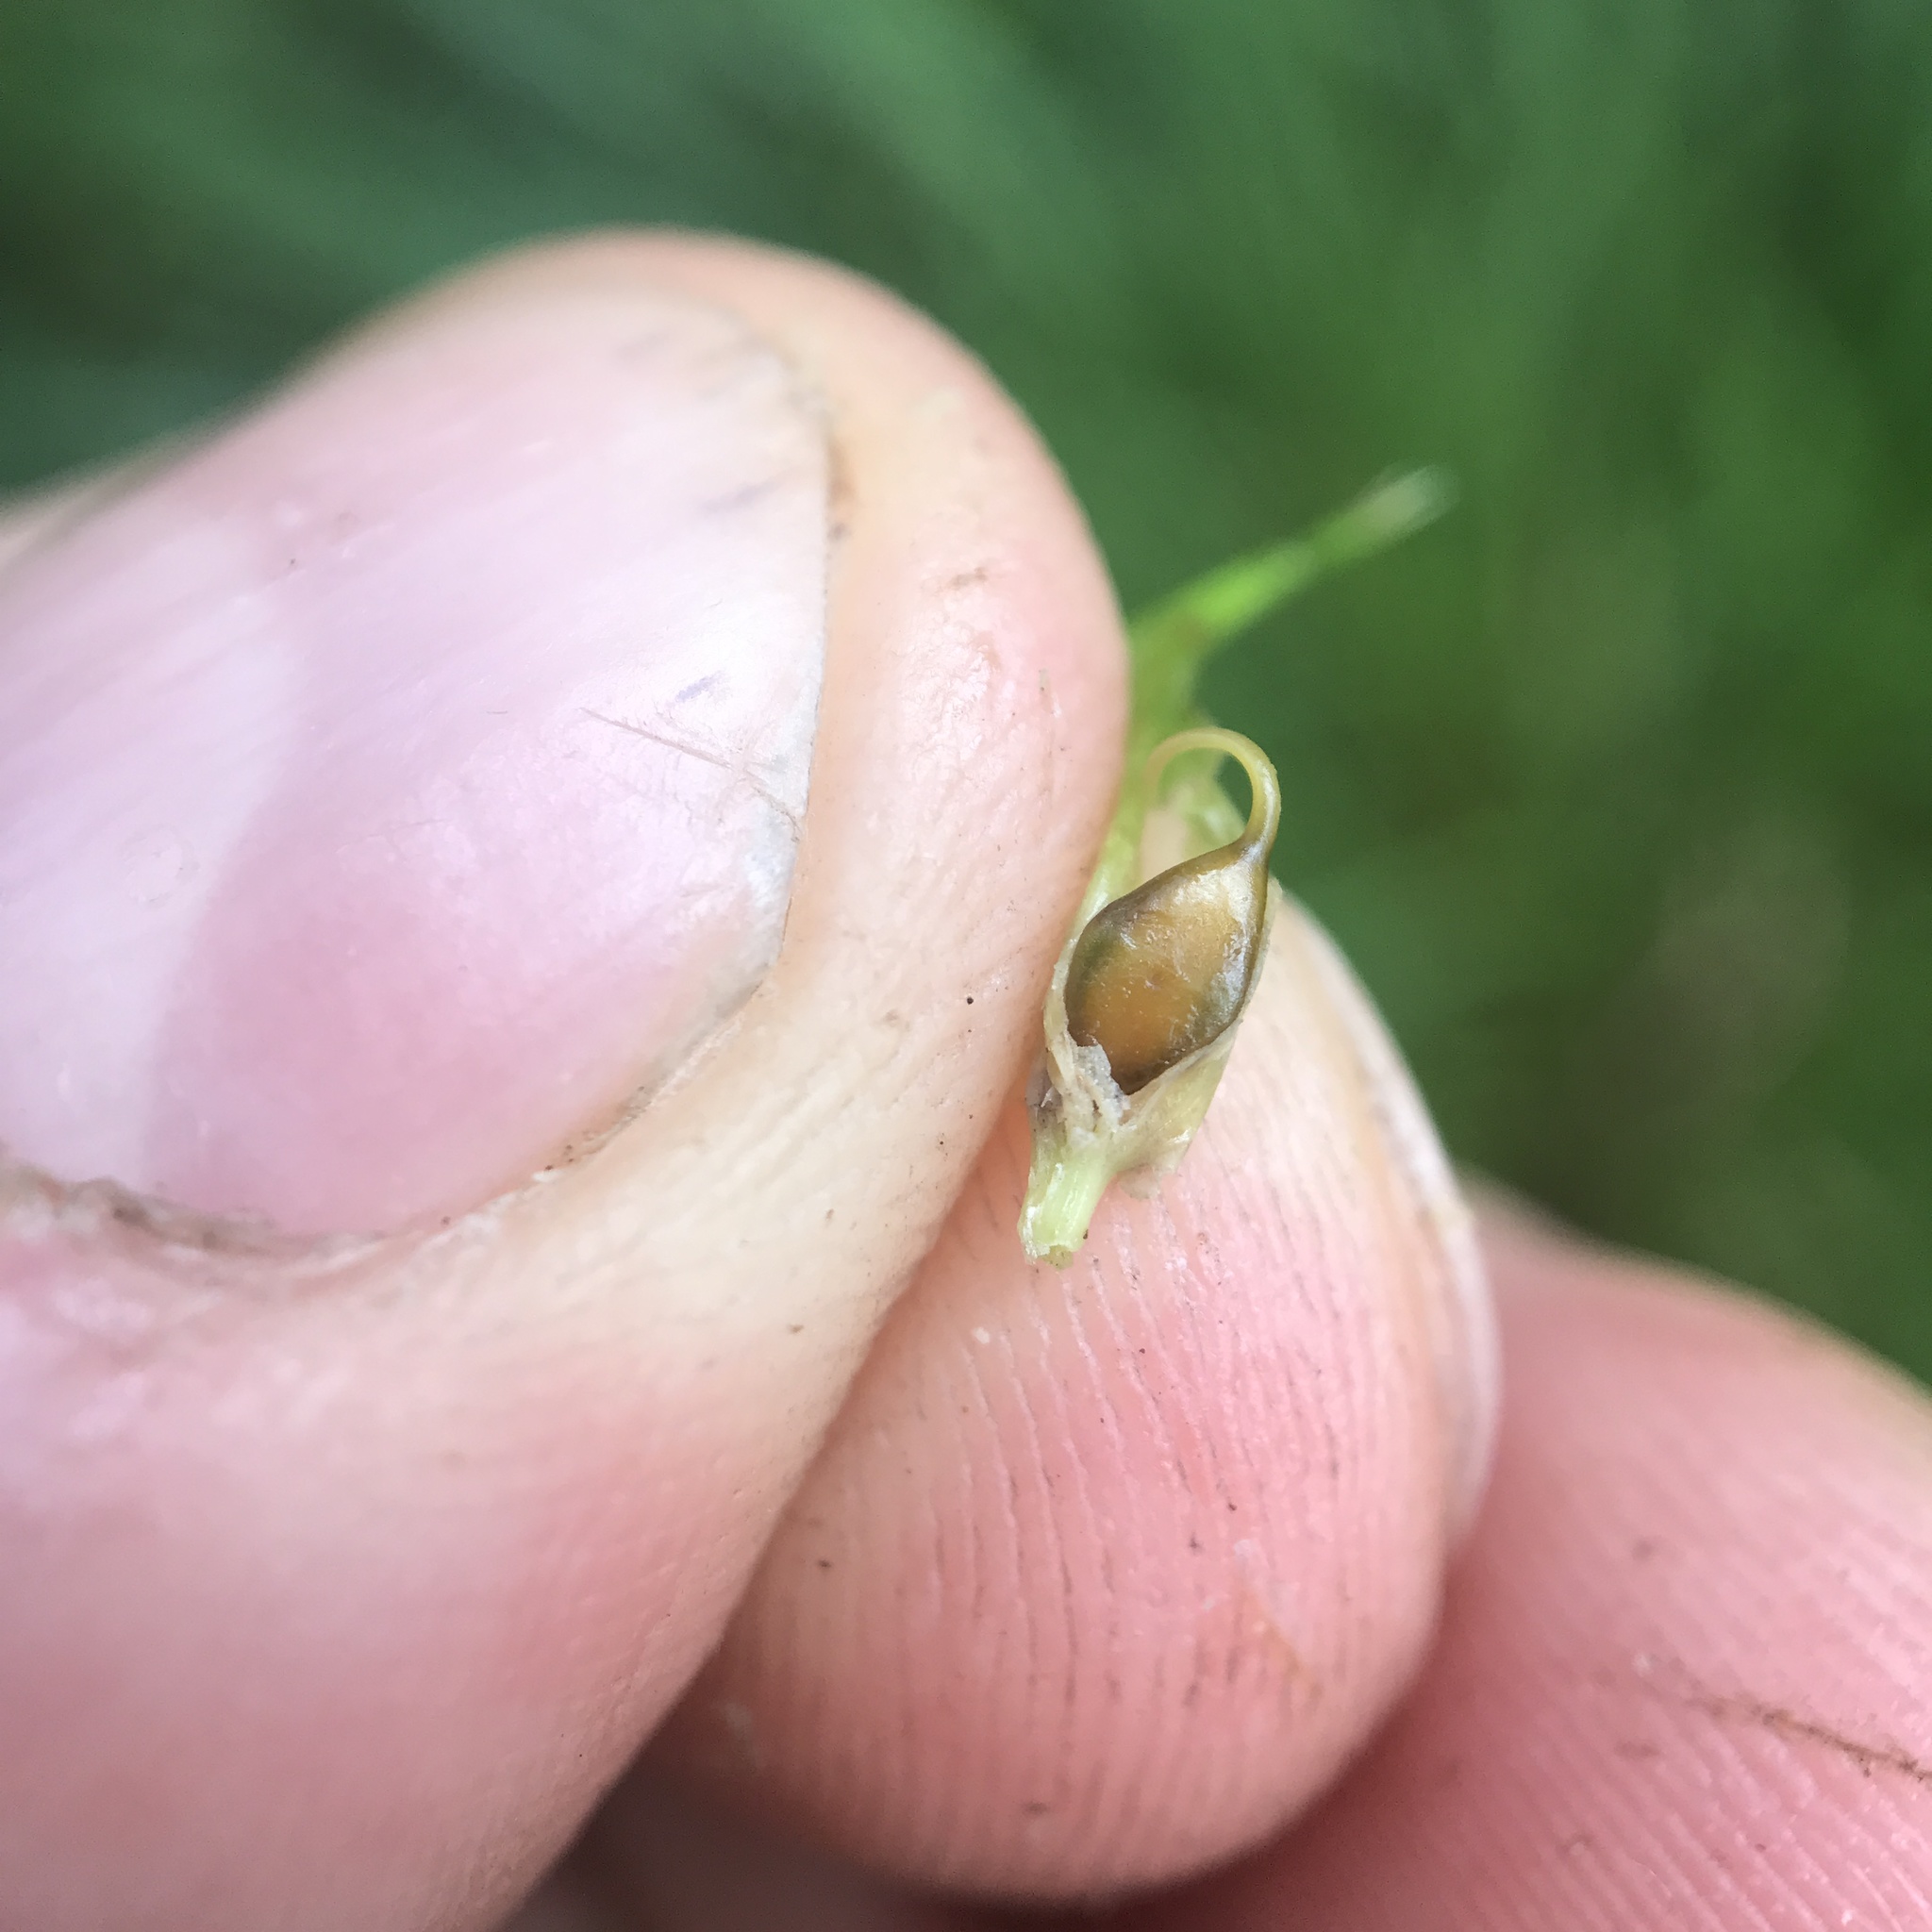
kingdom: Plantae
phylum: Tracheophyta
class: Liliopsida
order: Poales
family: Cyperaceae
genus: Carex
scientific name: Carex lupulina
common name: Hop sedge
